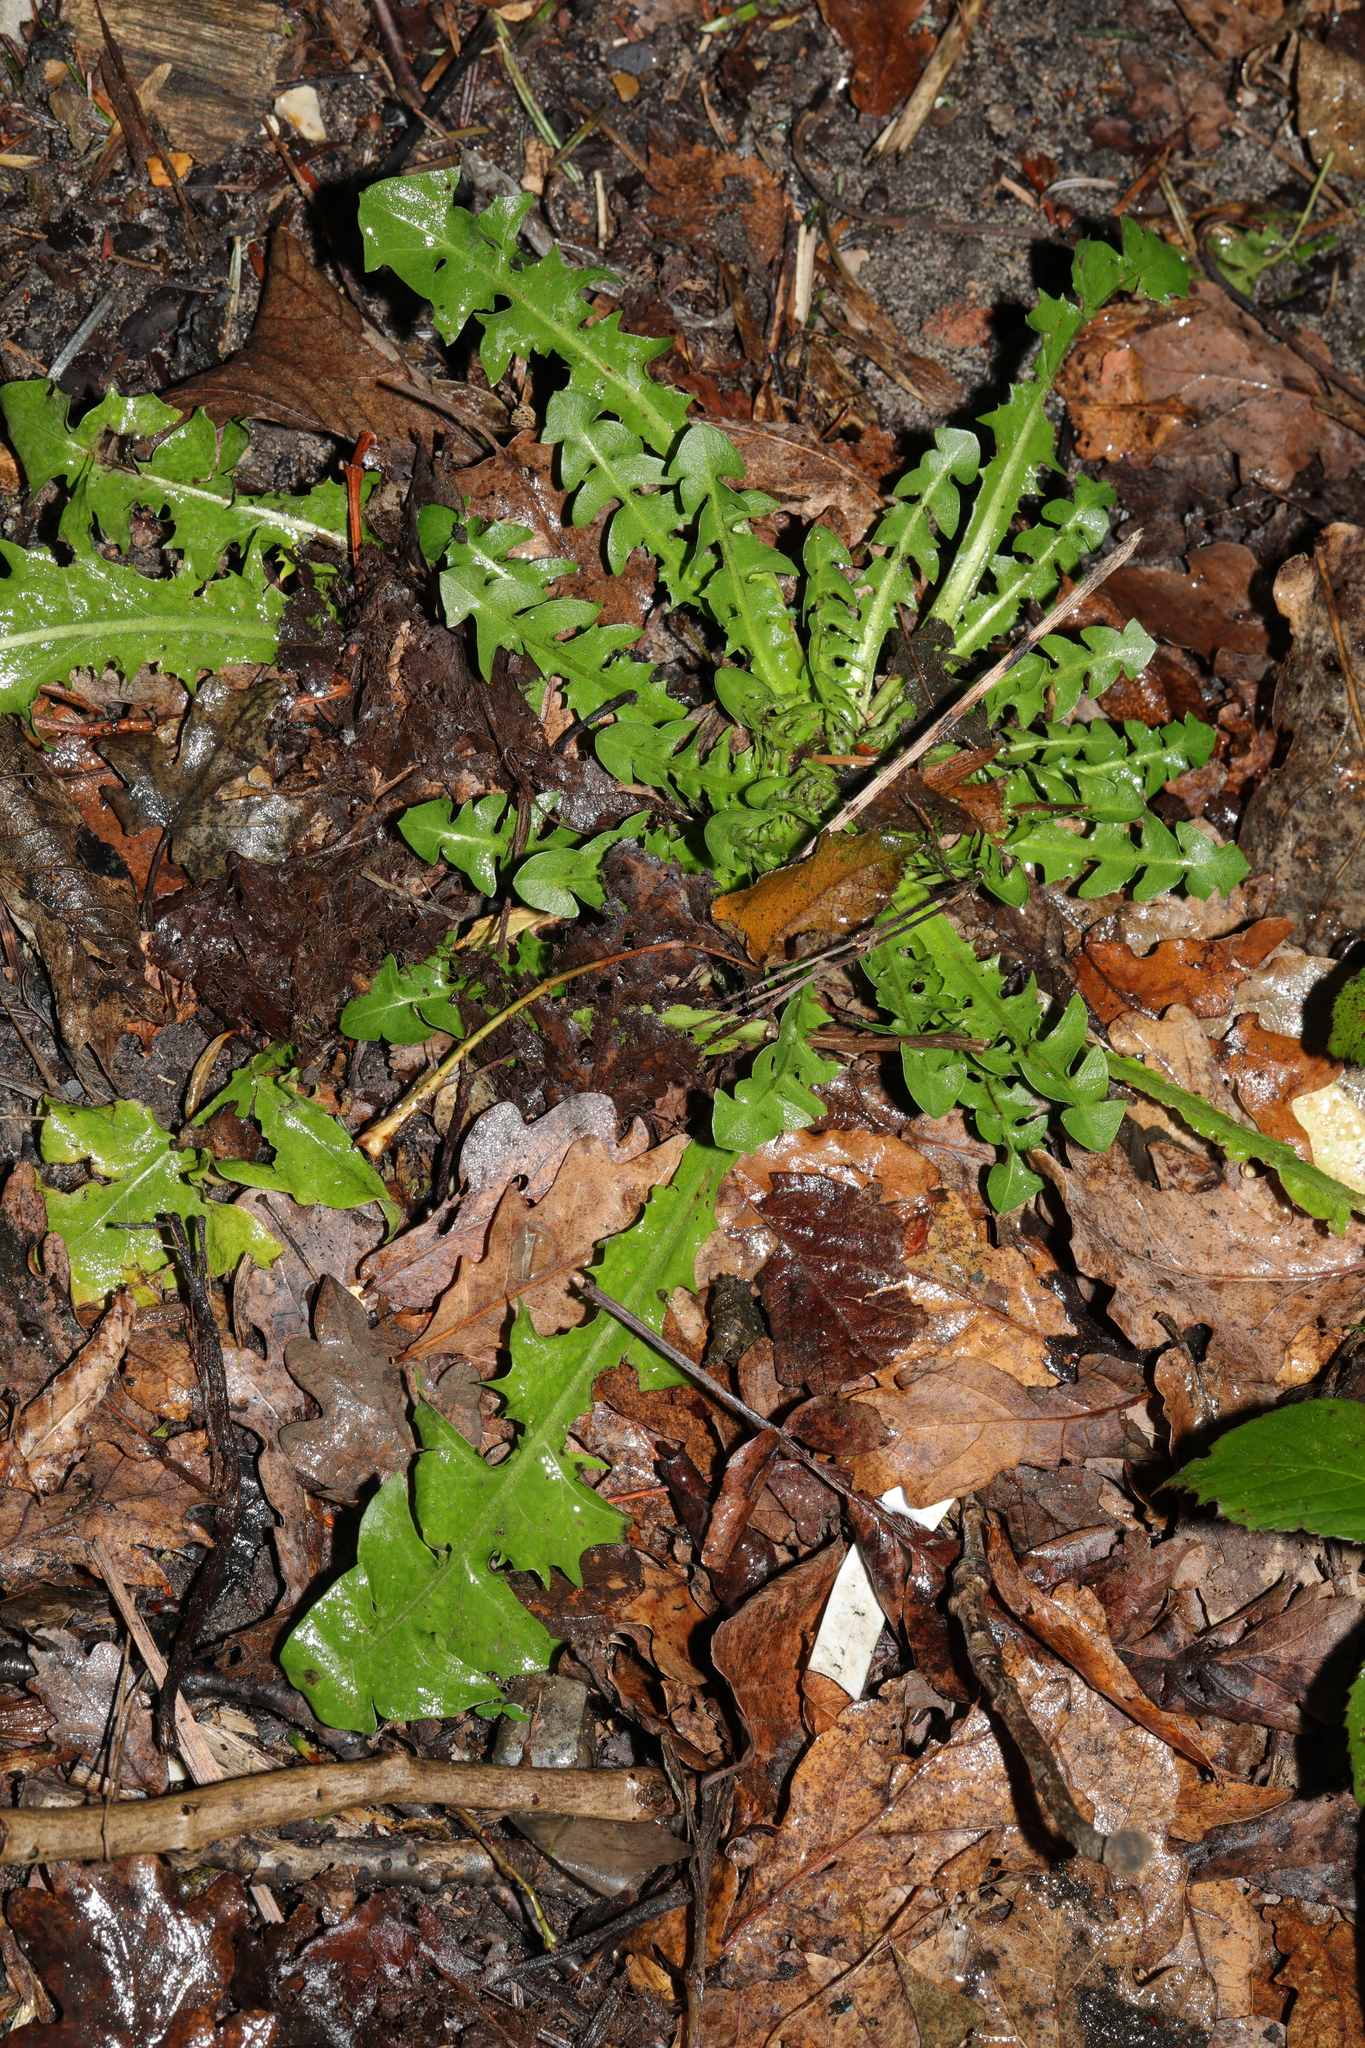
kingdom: Plantae
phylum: Tracheophyta
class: Magnoliopsida
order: Asterales
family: Asteraceae
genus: Taraxacum
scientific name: Taraxacum officinale
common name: Common dandelion
